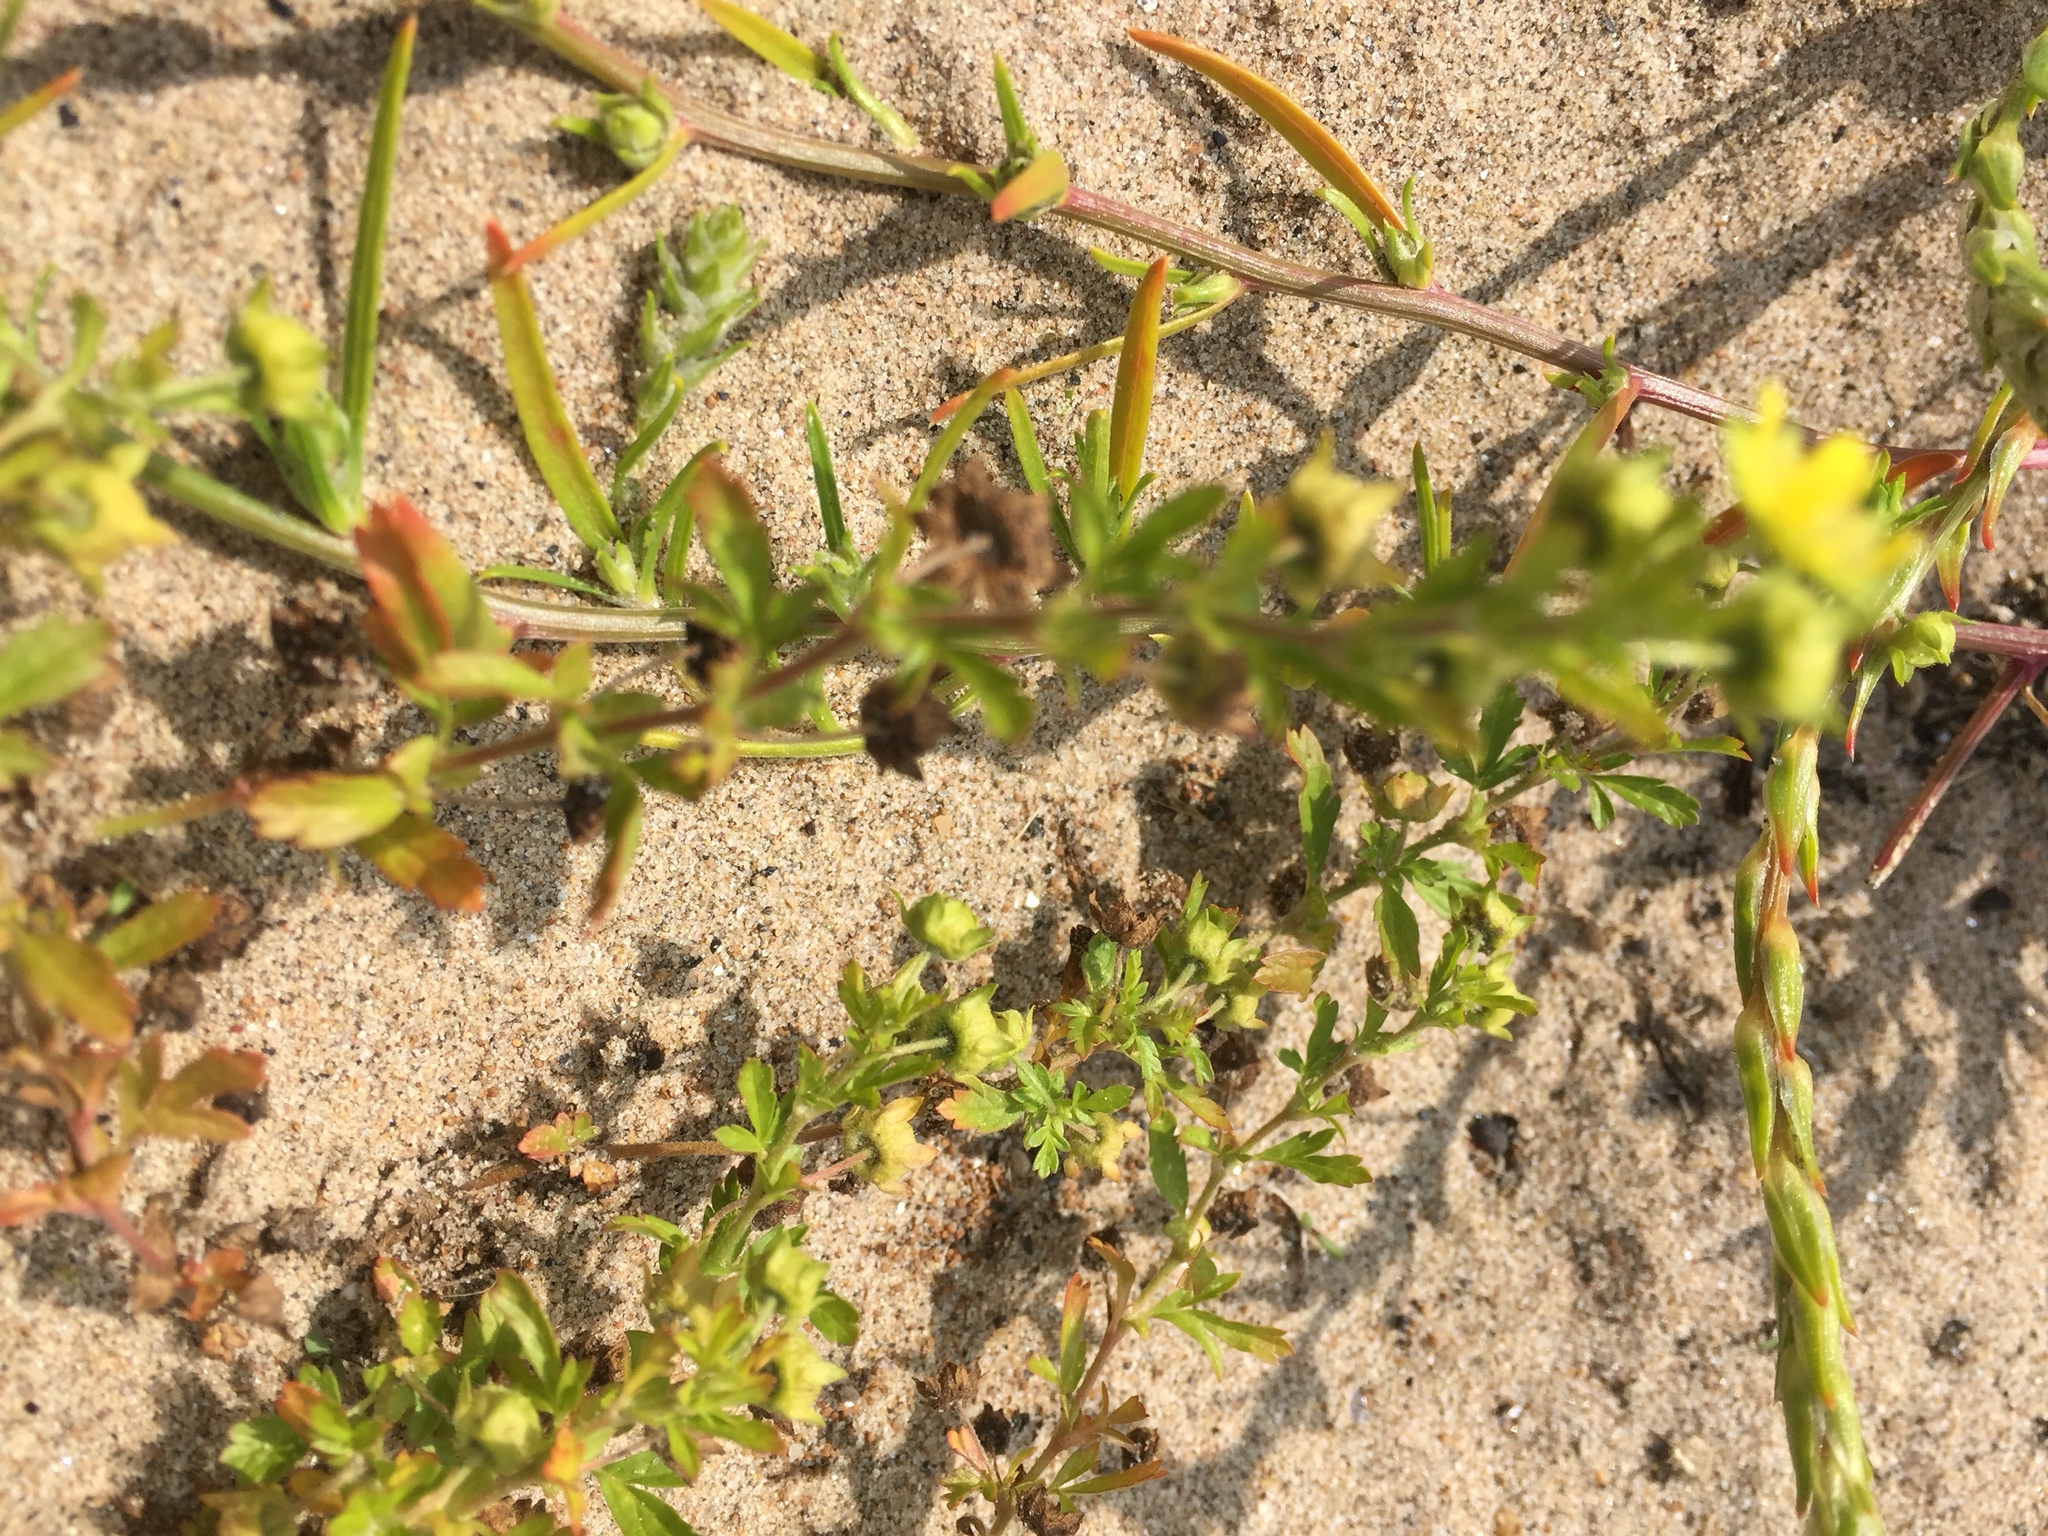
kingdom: Plantae
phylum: Tracheophyta
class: Magnoliopsida
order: Rosales
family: Rosaceae
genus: Potentilla
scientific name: Potentilla supina
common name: Prostrate cinquefoil
